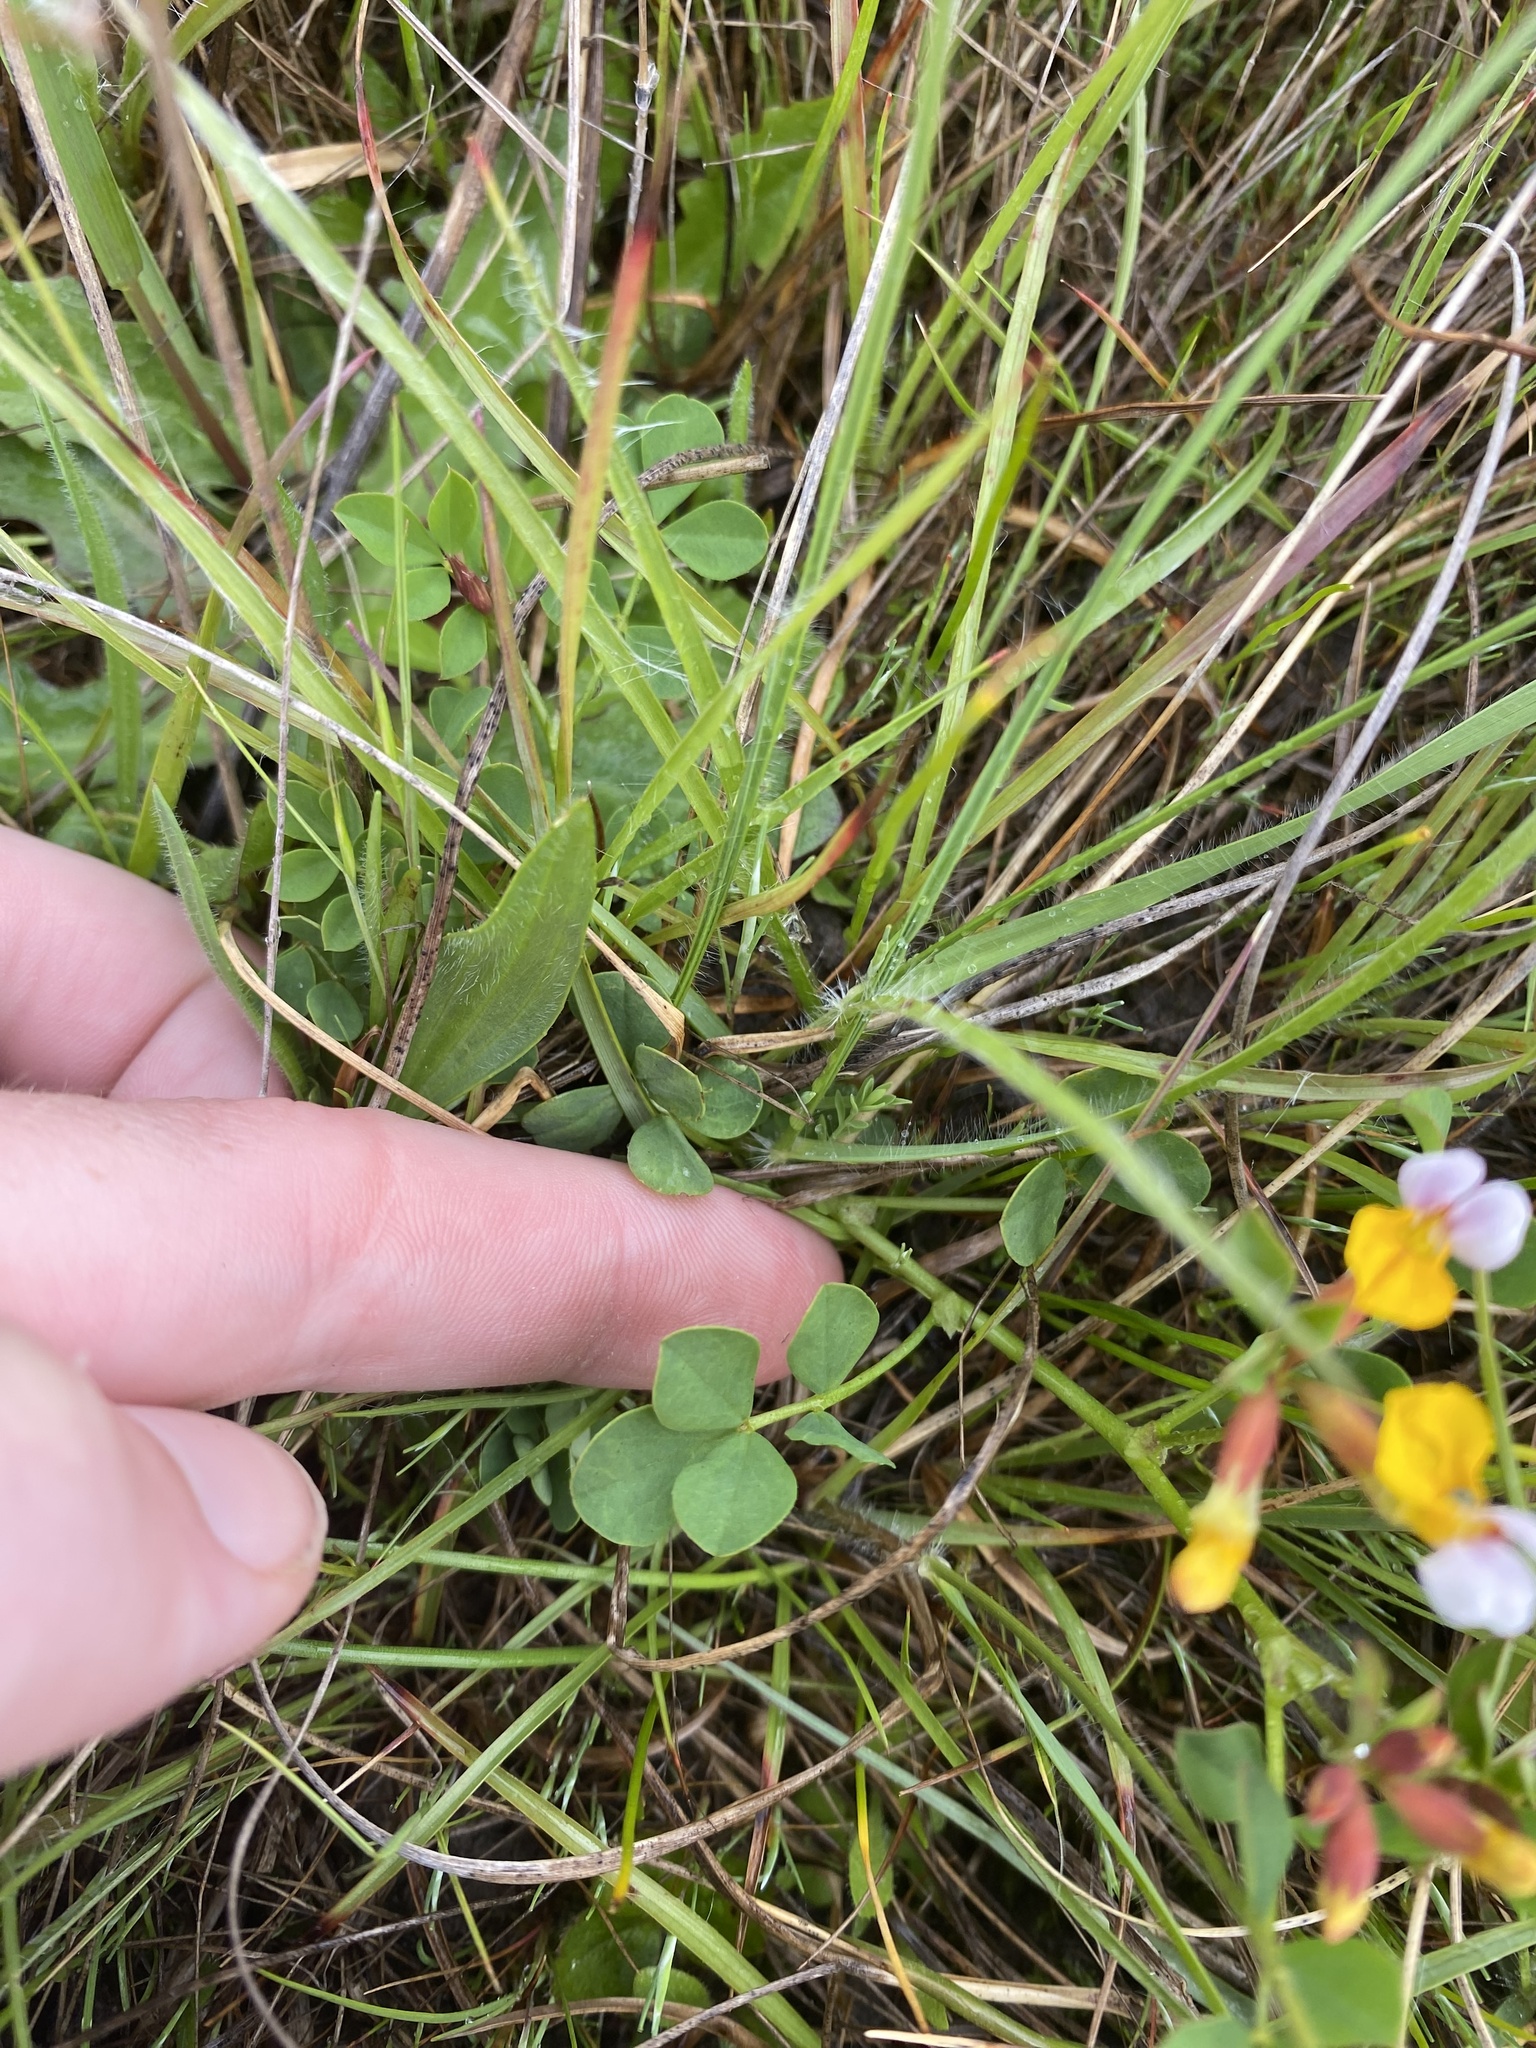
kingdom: Plantae
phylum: Tracheophyta
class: Magnoliopsida
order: Fabales
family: Fabaceae
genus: Hosackia
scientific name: Hosackia gracilis
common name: Seaside bird's-foot lotus
